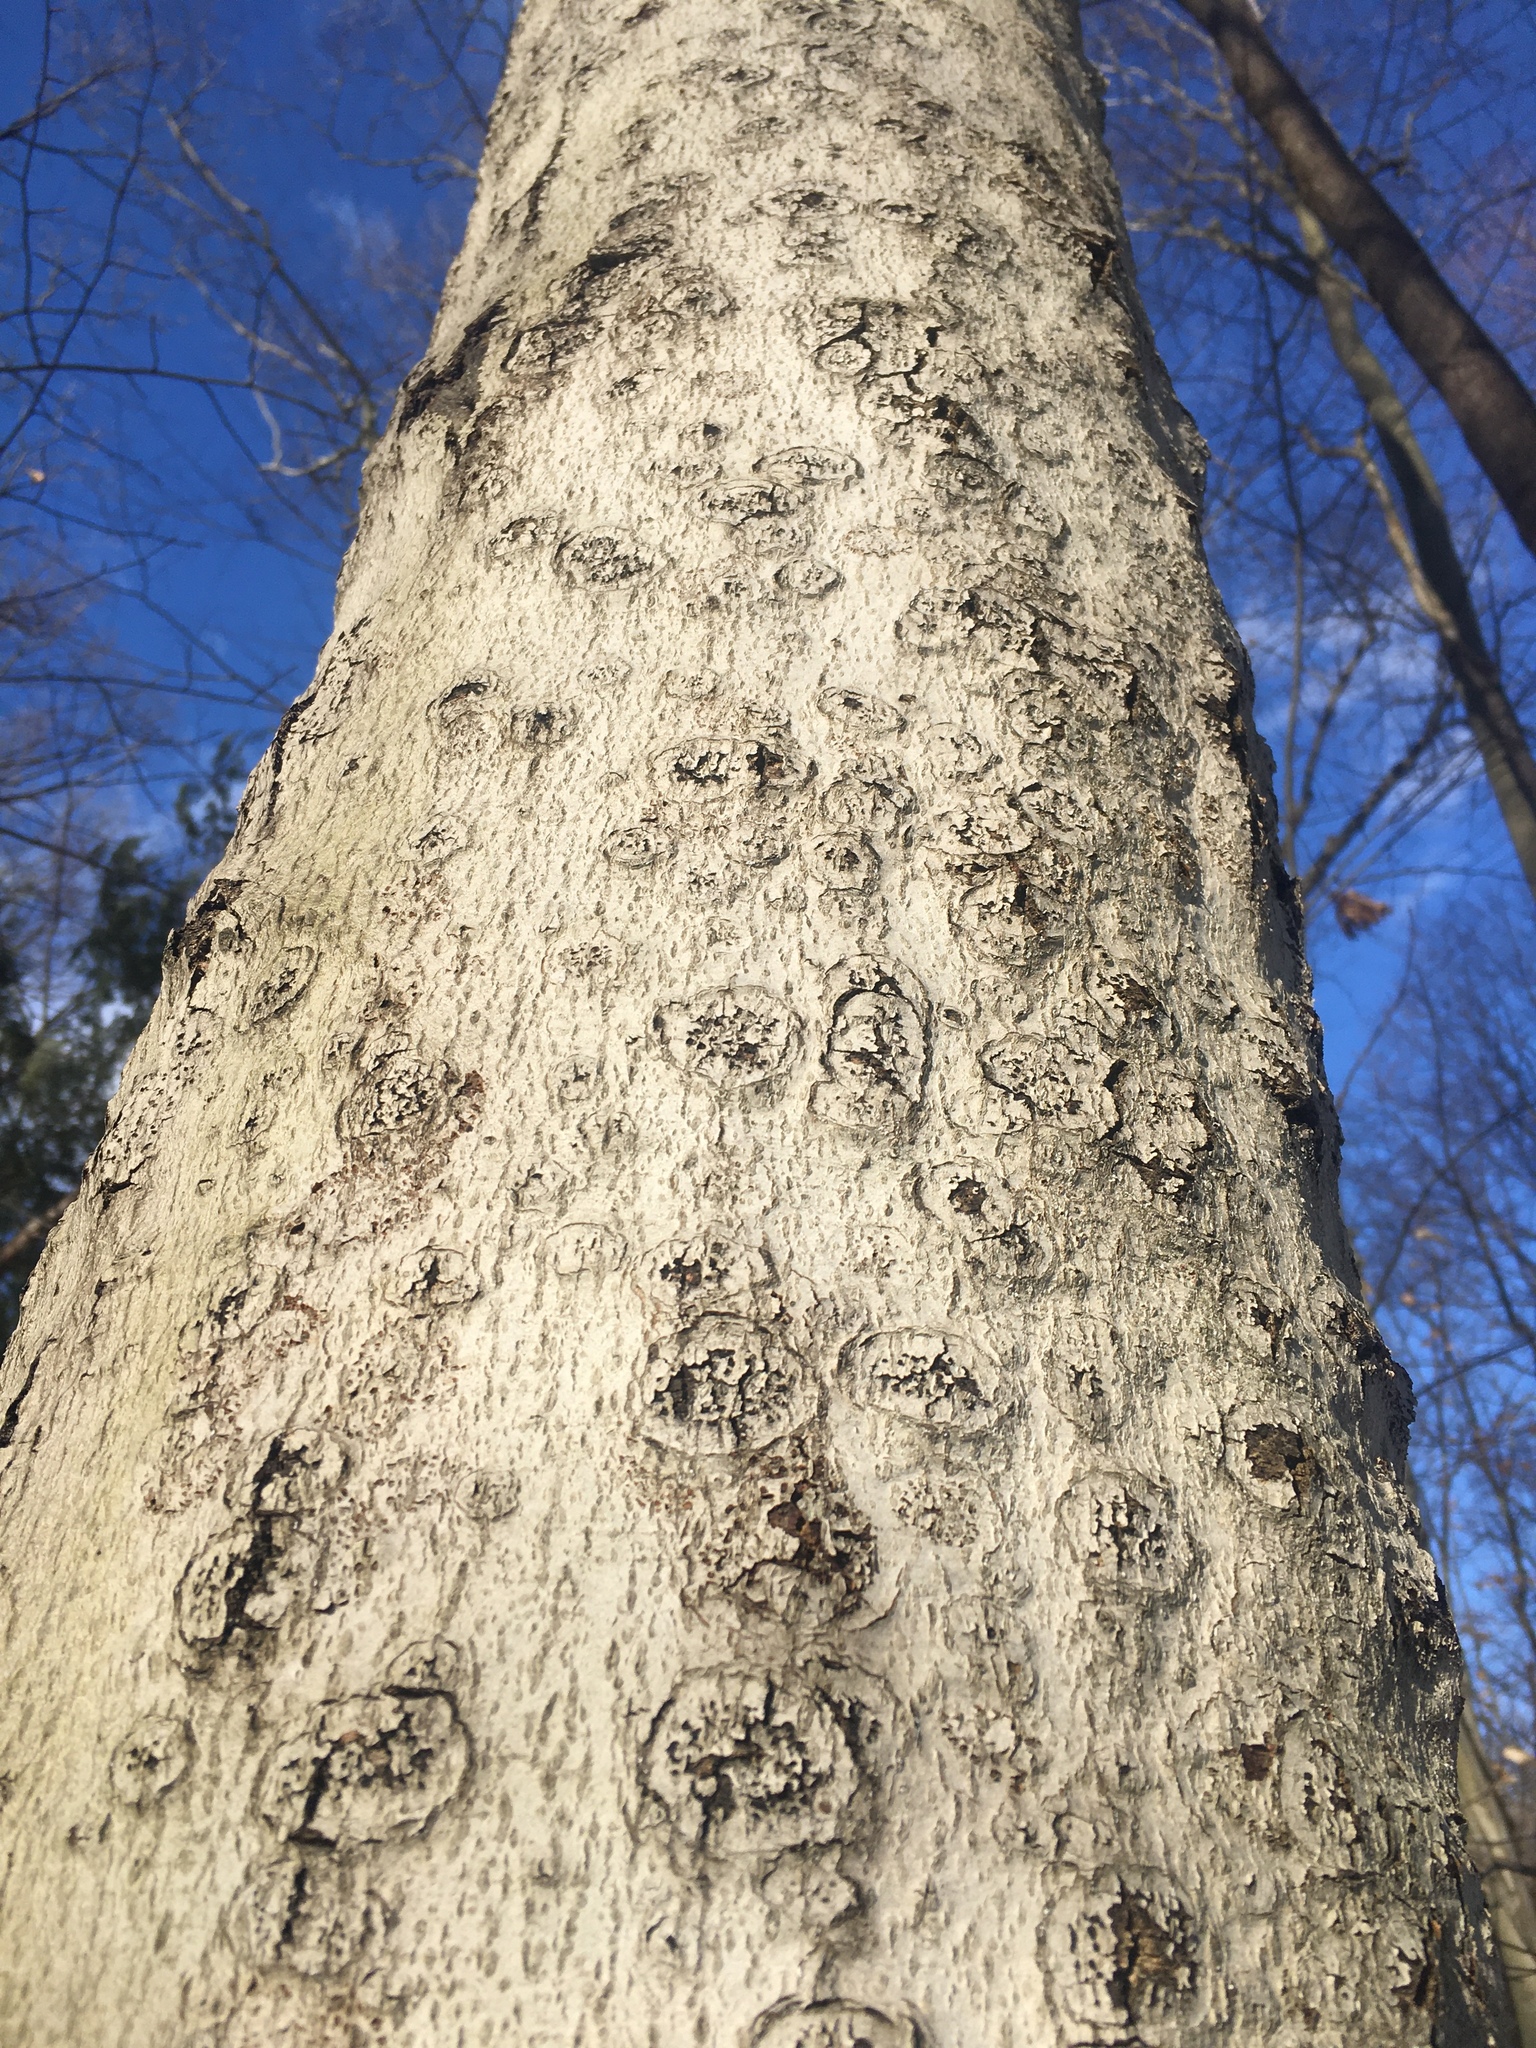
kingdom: Animalia
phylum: Arthropoda
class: Insecta
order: Hemiptera
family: Eriococcidae
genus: Cryptococcus
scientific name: Cryptococcus fagisuga
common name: Beech scale
